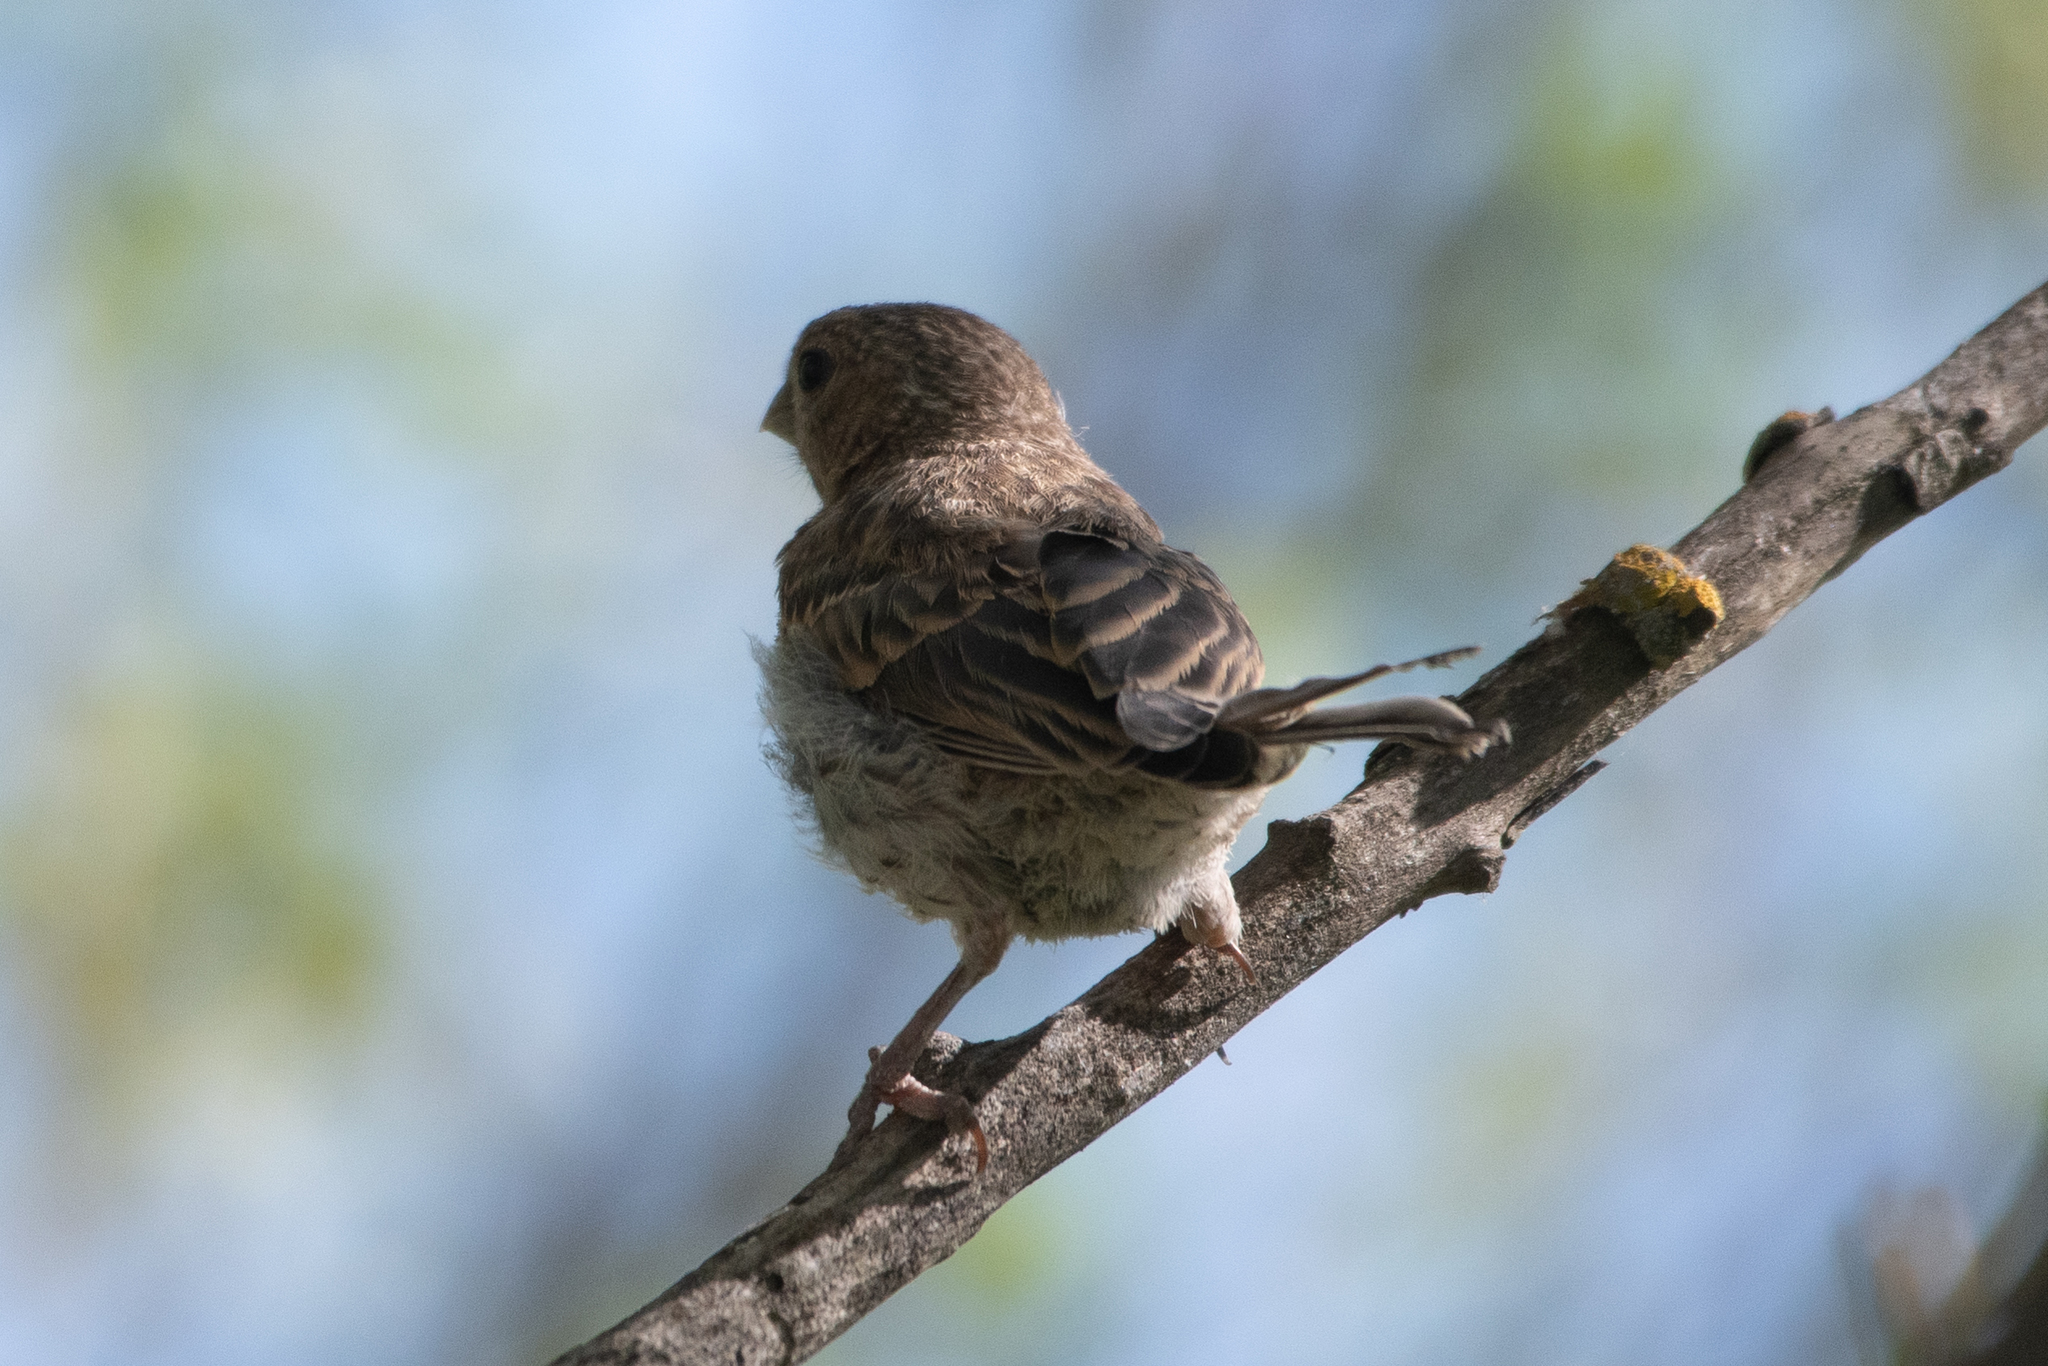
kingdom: Animalia
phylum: Chordata
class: Aves
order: Passeriformes
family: Fringillidae
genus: Haemorhous
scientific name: Haemorhous mexicanus
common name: House finch
